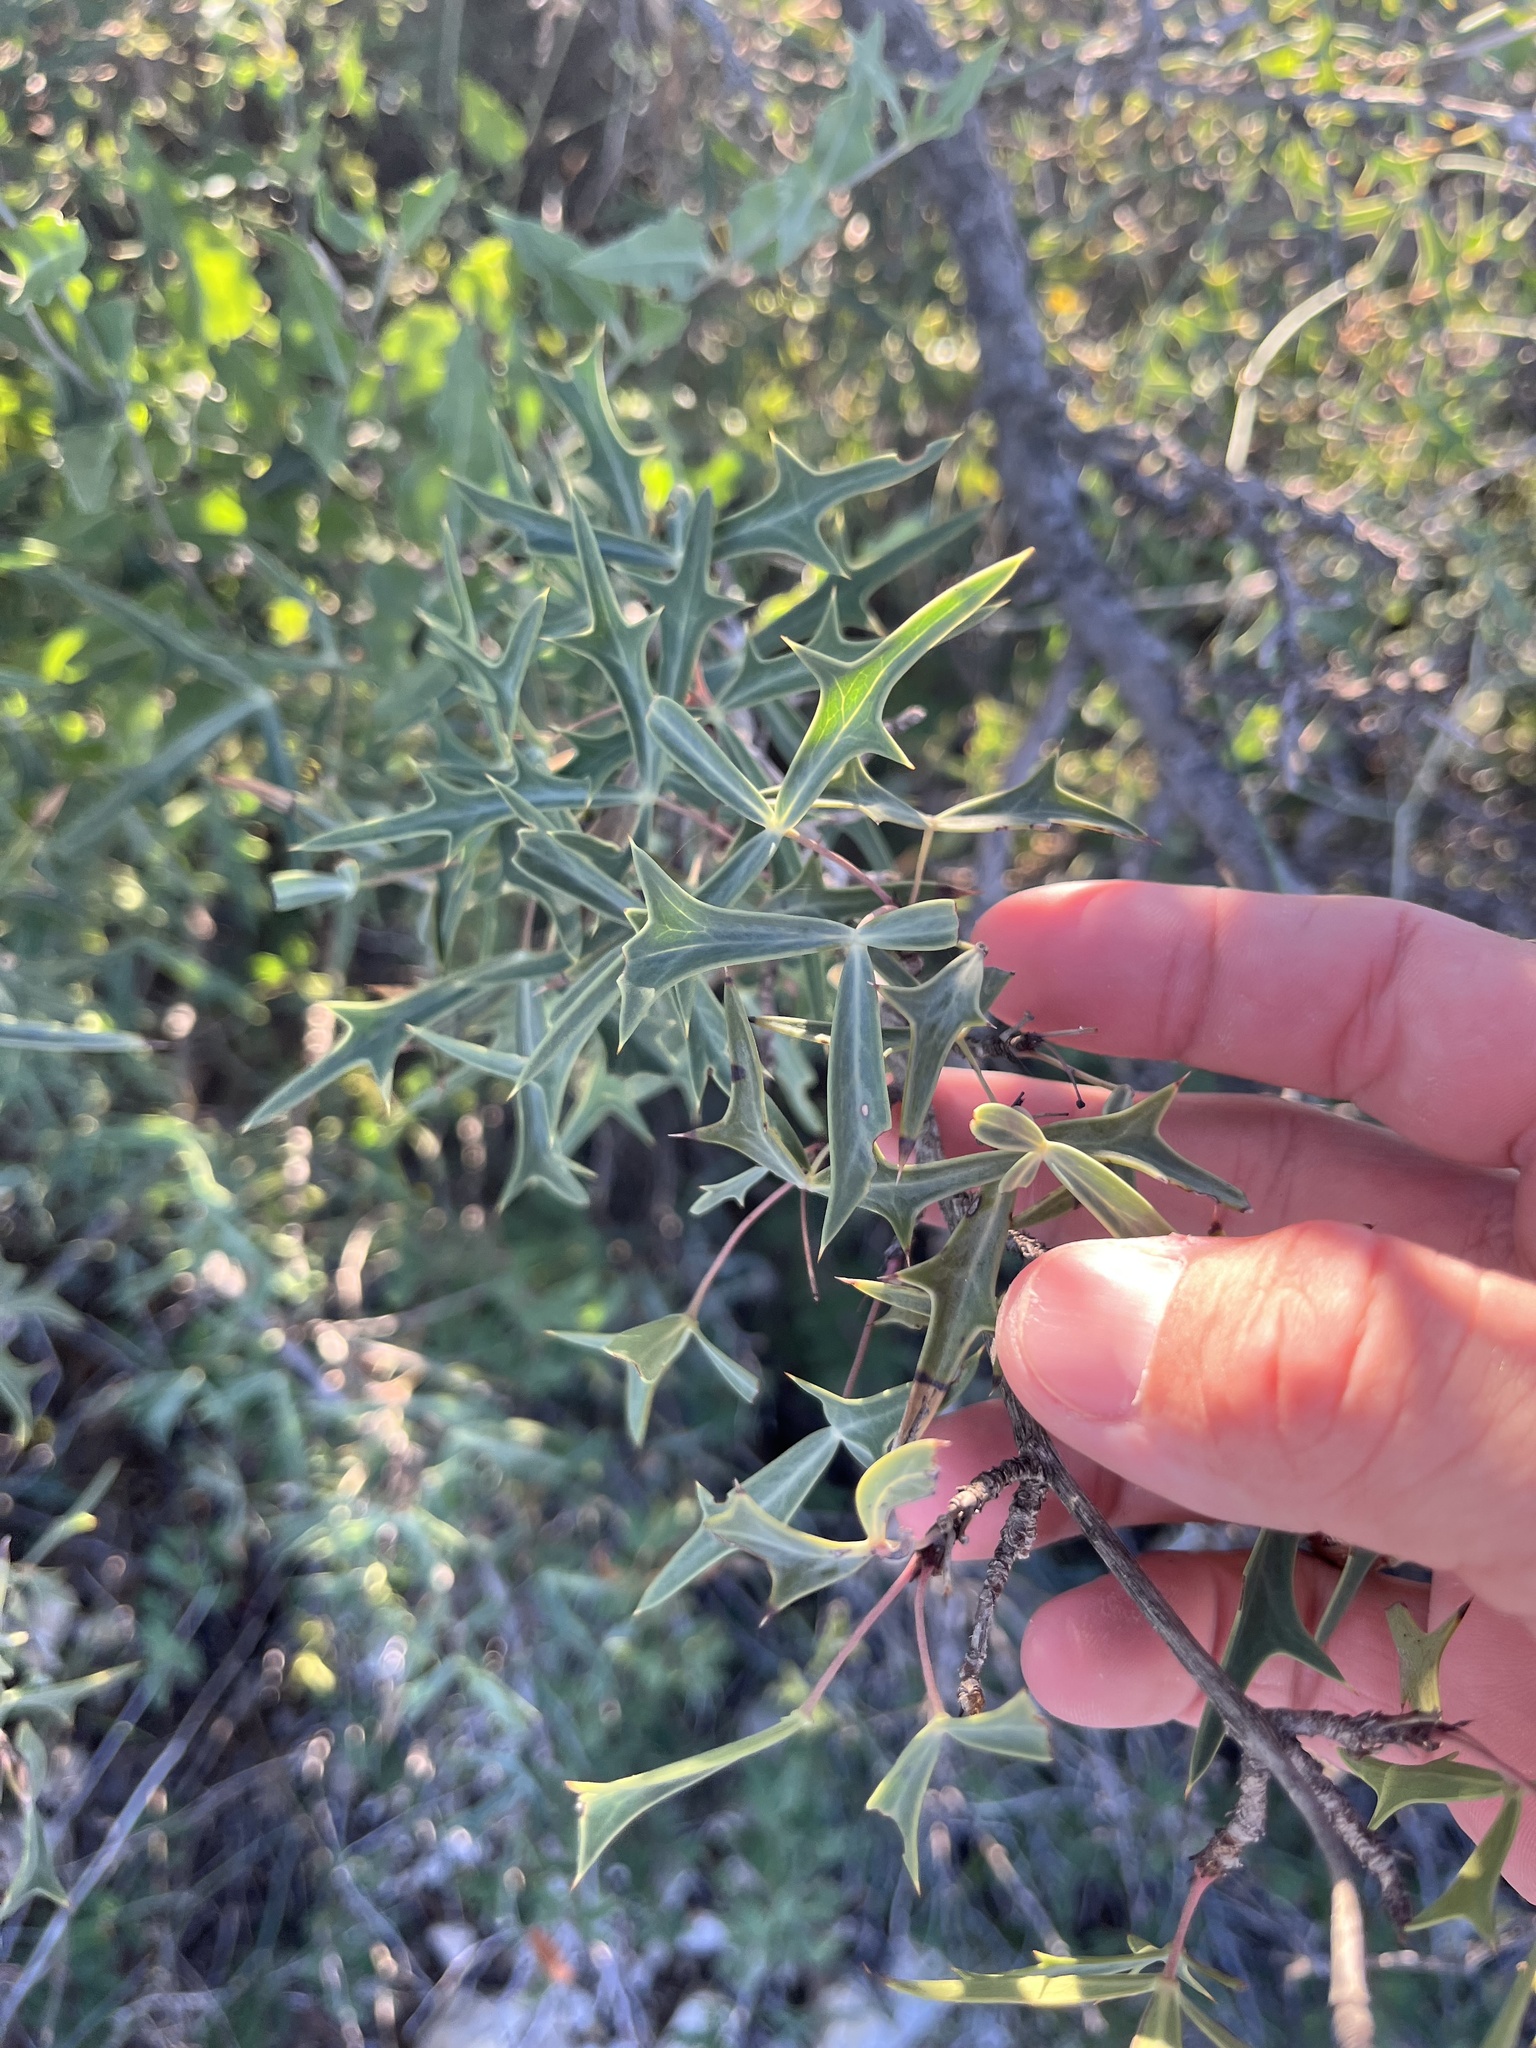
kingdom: Plantae
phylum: Tracheophyta
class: Magnoliopsida
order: Ranunculales
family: Berberidaceae
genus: Alloberberis
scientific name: Alloberberis trifoliolata
